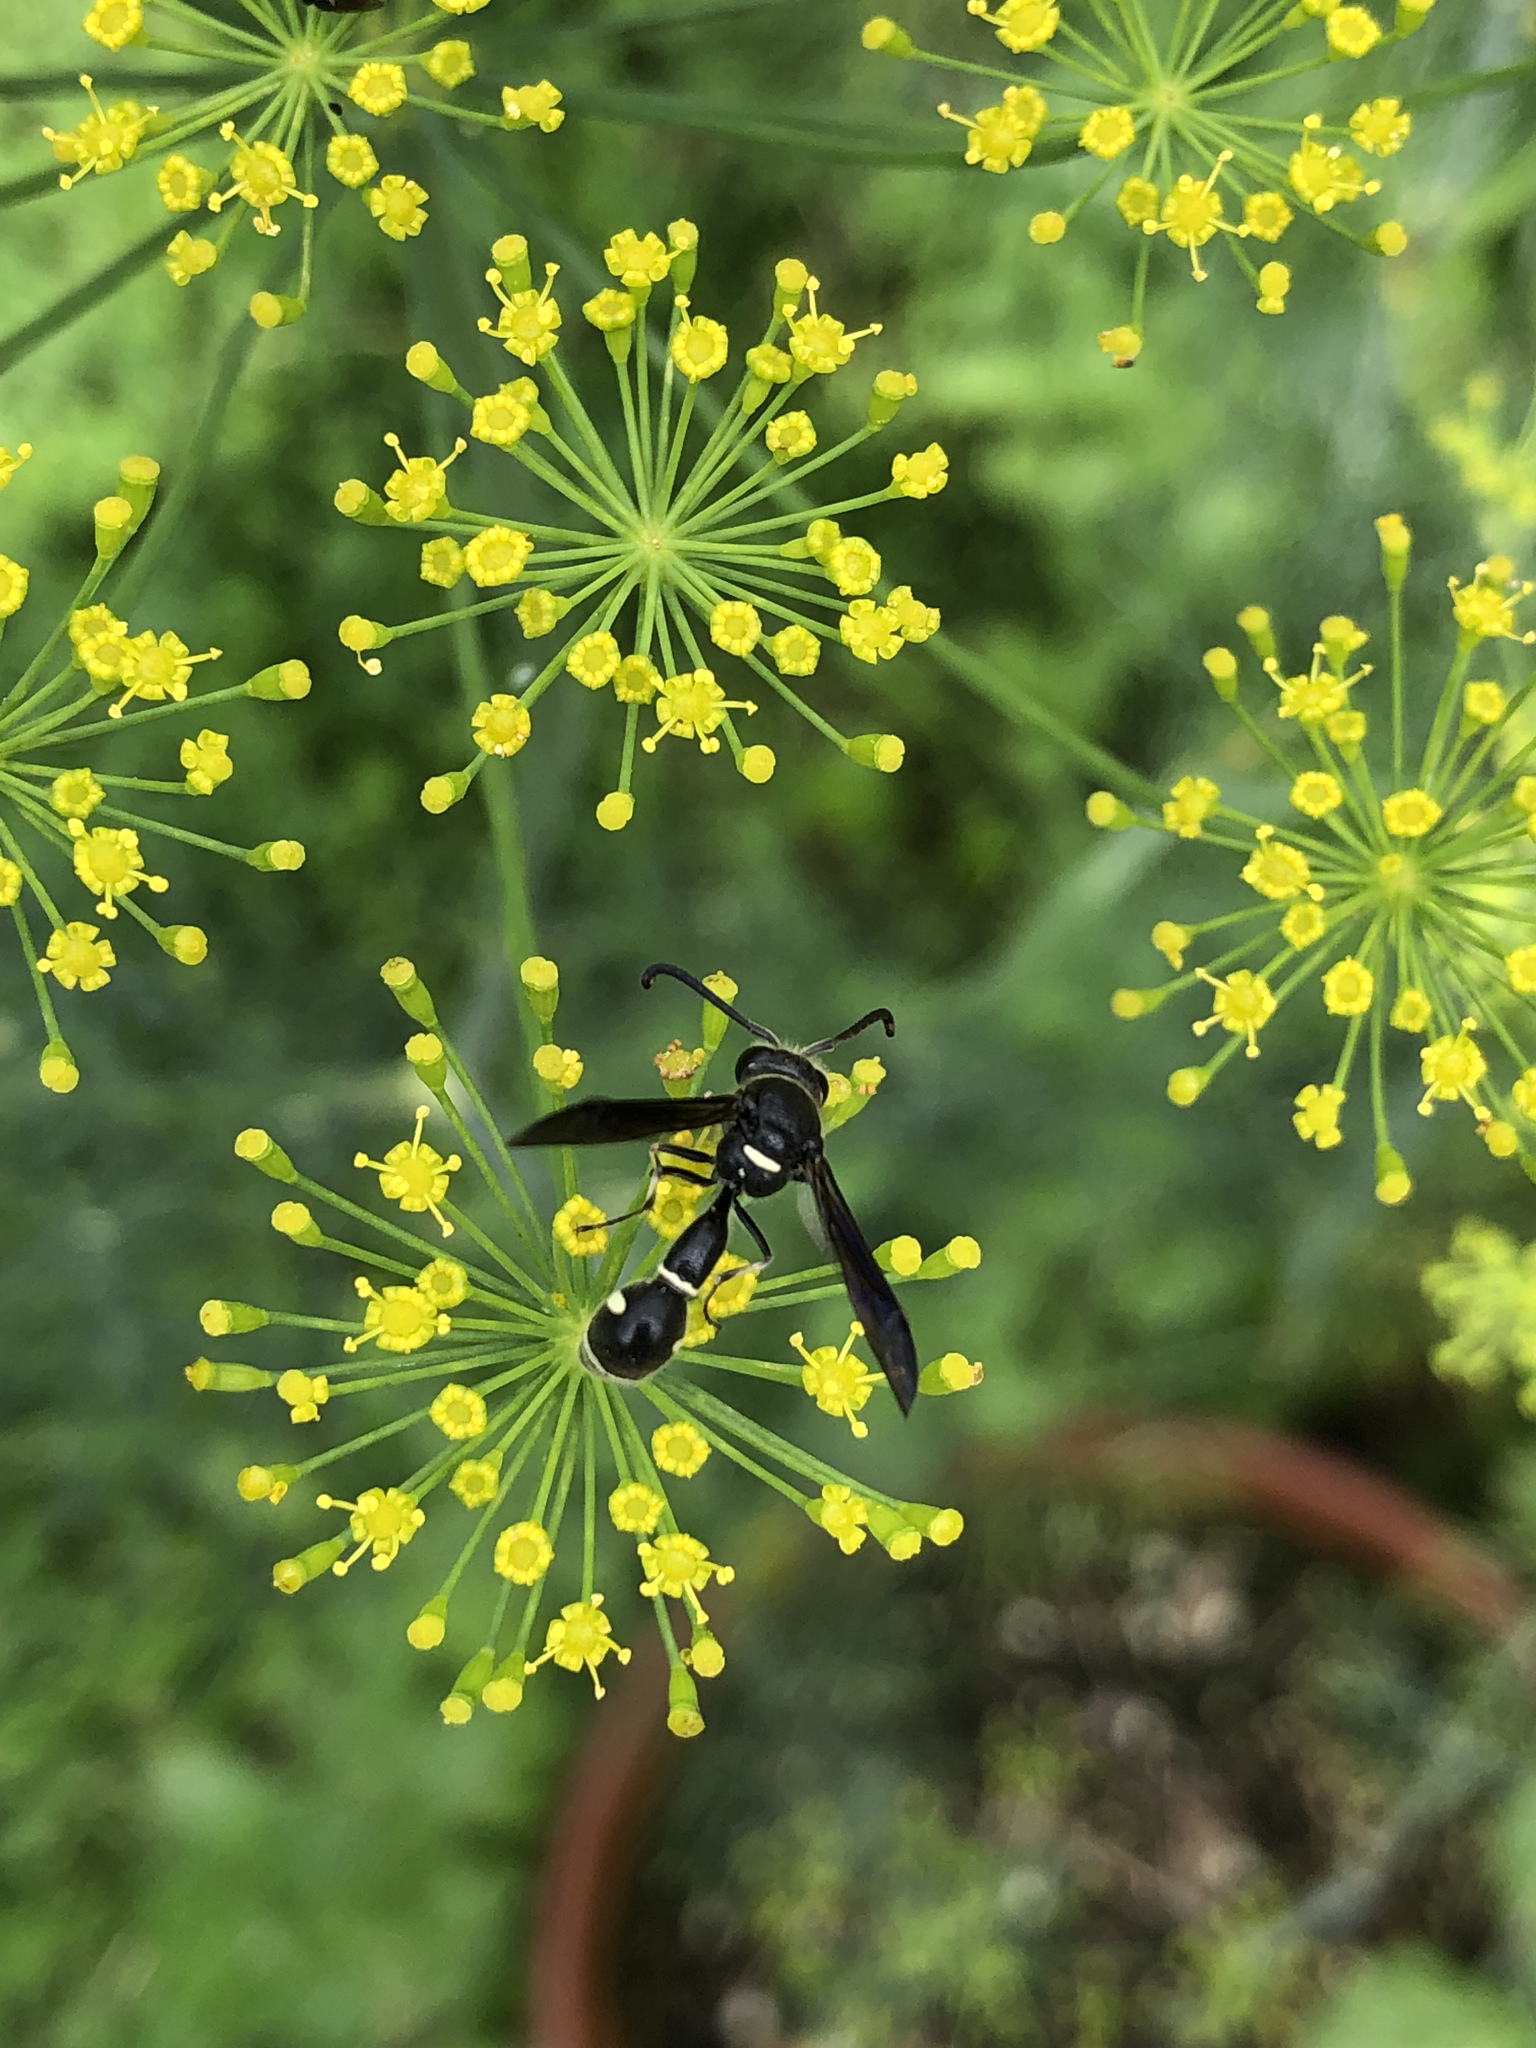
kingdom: Animalia
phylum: Arthropoda
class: Insecta
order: Hymenoptera
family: Vespidae
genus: Eumenes
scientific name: Eumenes fraternus
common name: Fraternal potter wasp
